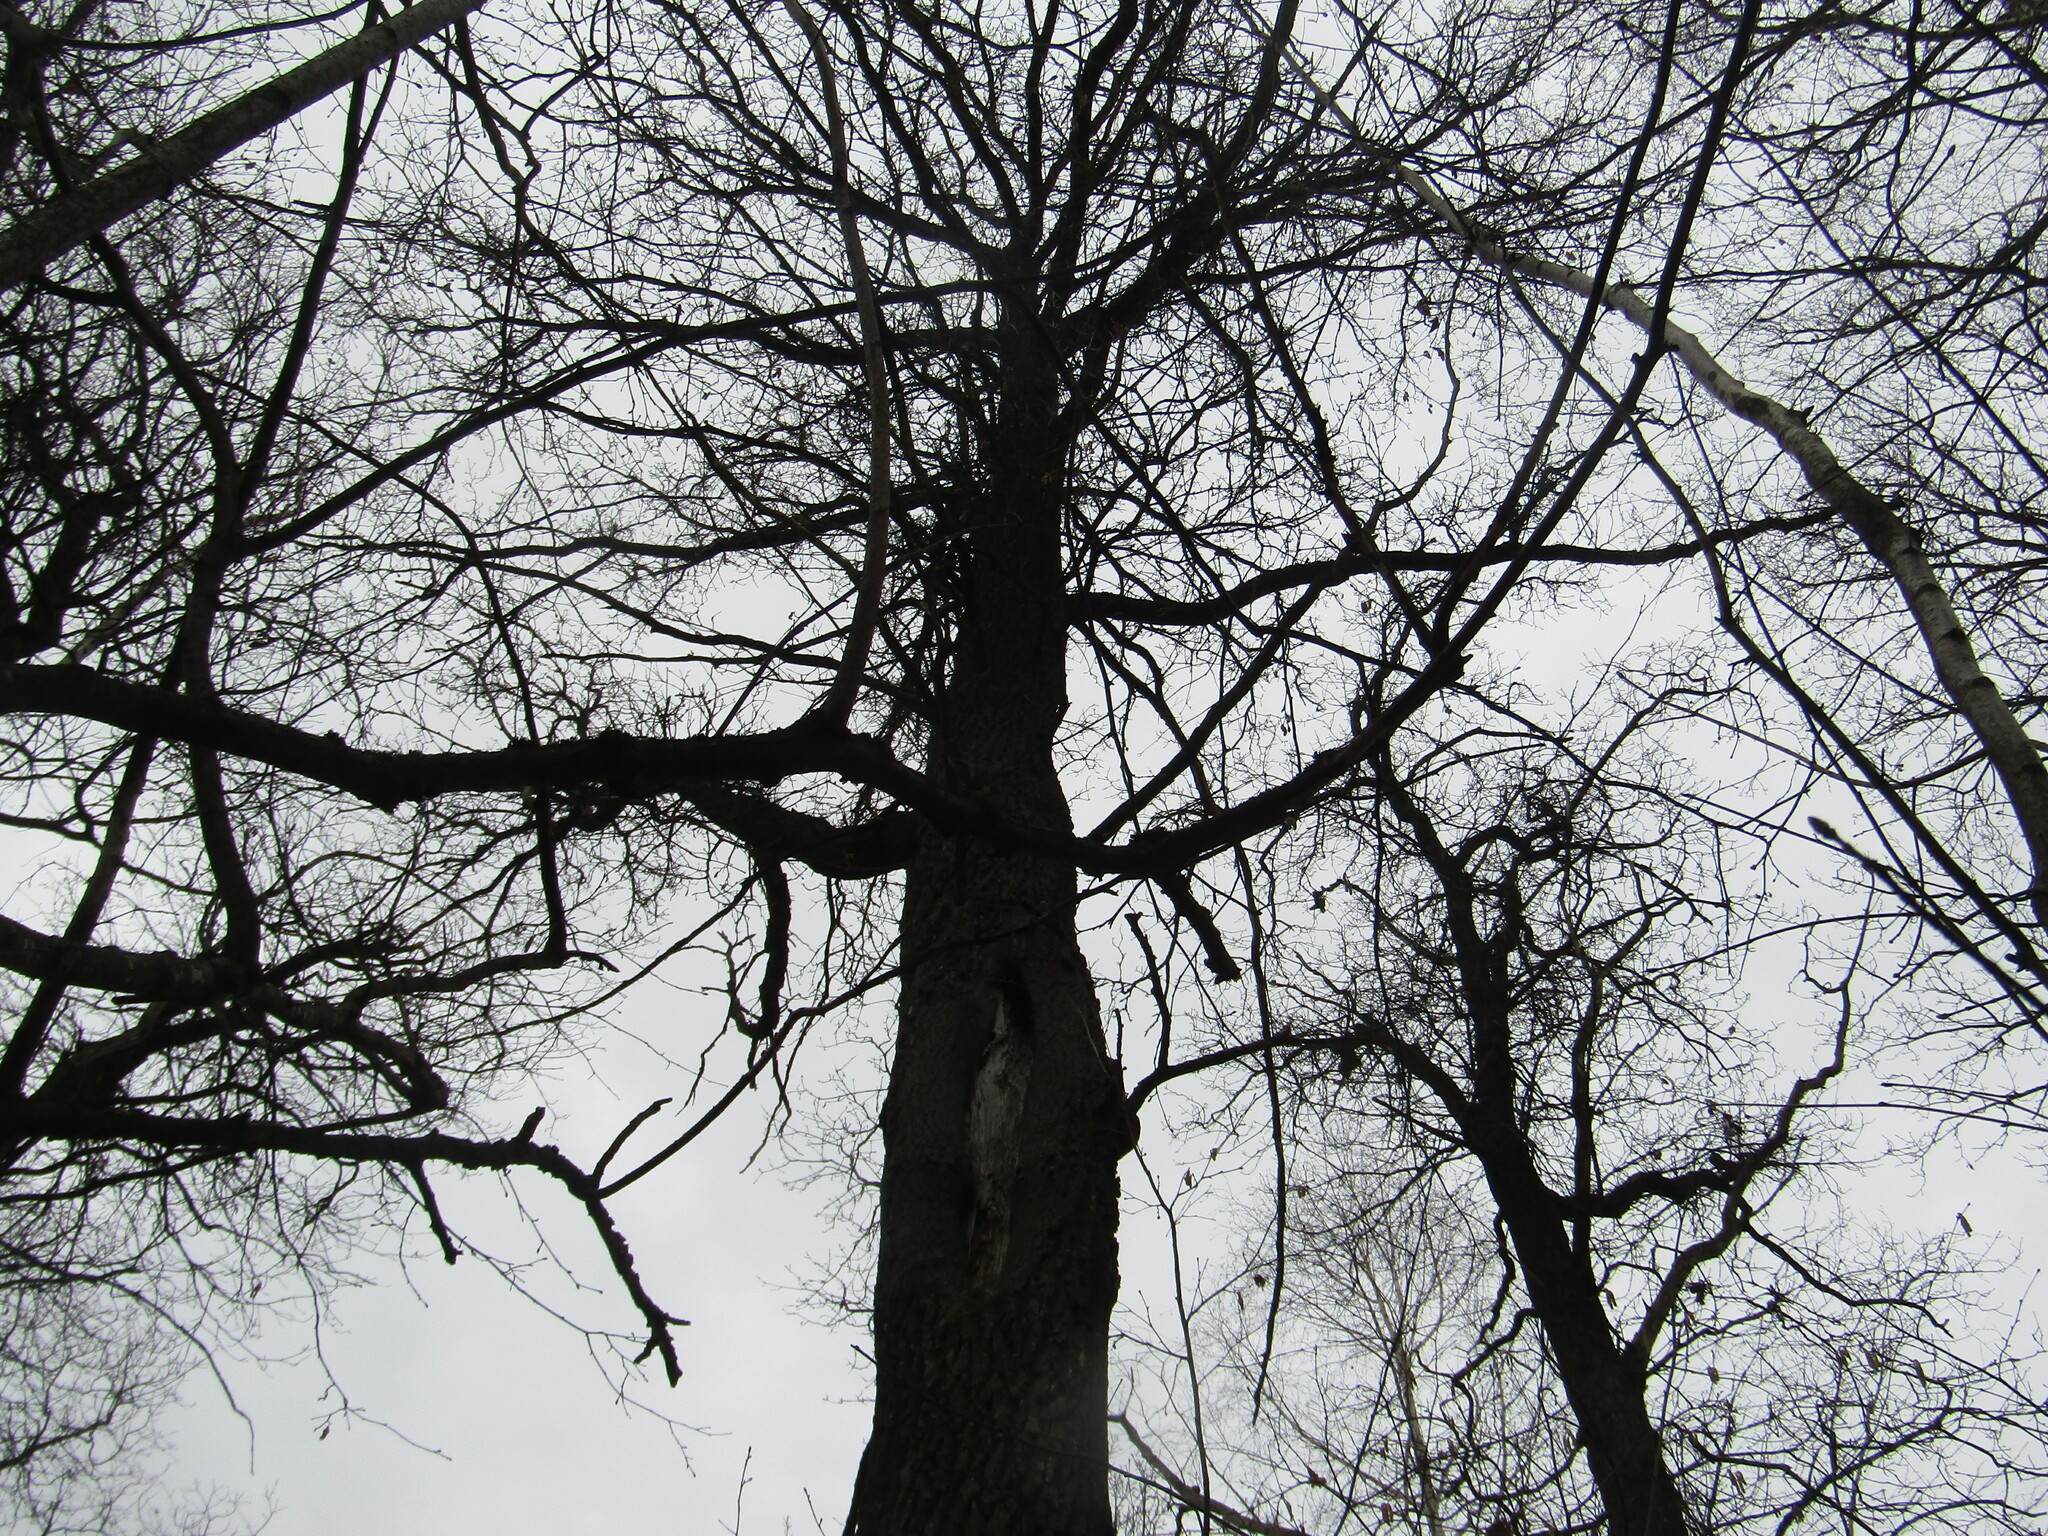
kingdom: Plantae
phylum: Tracheophyta
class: Magnoliopsida
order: Fagales
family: Fagaceae
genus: Quercus
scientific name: Quercus robur
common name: Pedunculate oak
